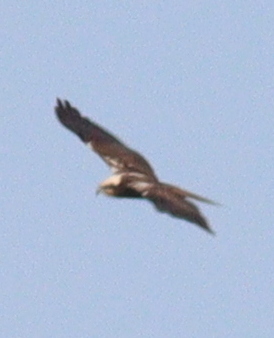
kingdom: Animalia
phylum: Chordata
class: Aves
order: Accipitriformes
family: Accipitridae
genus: Circus
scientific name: Circus aeruginosus
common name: Western marsh harrier
